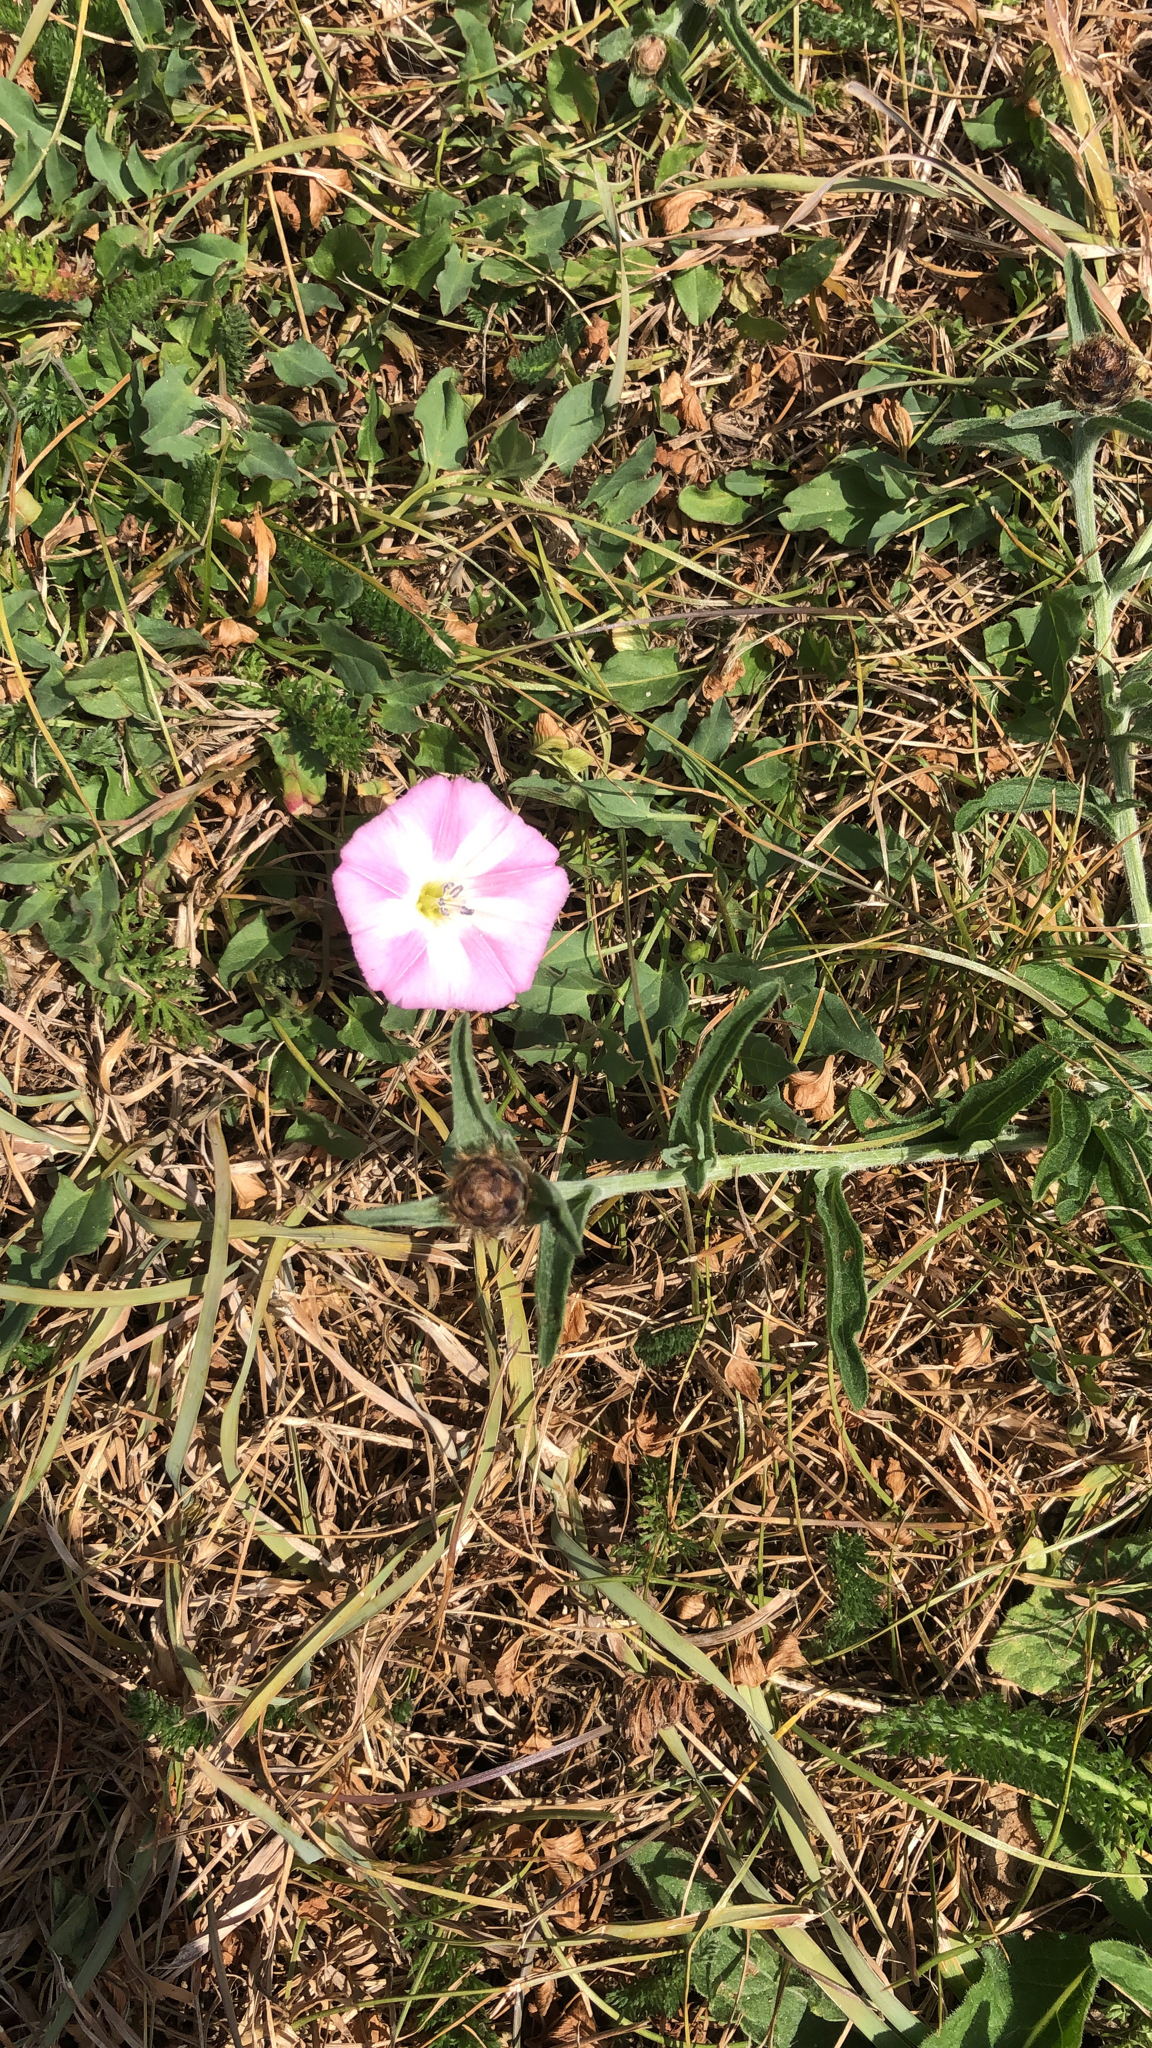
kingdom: Plantae
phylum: Tracheophyta
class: Magnoliopsida
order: Solanales
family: Convolvulaceae
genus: Convolvulus
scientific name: Convolvulus arvensis
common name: Field bindweed
